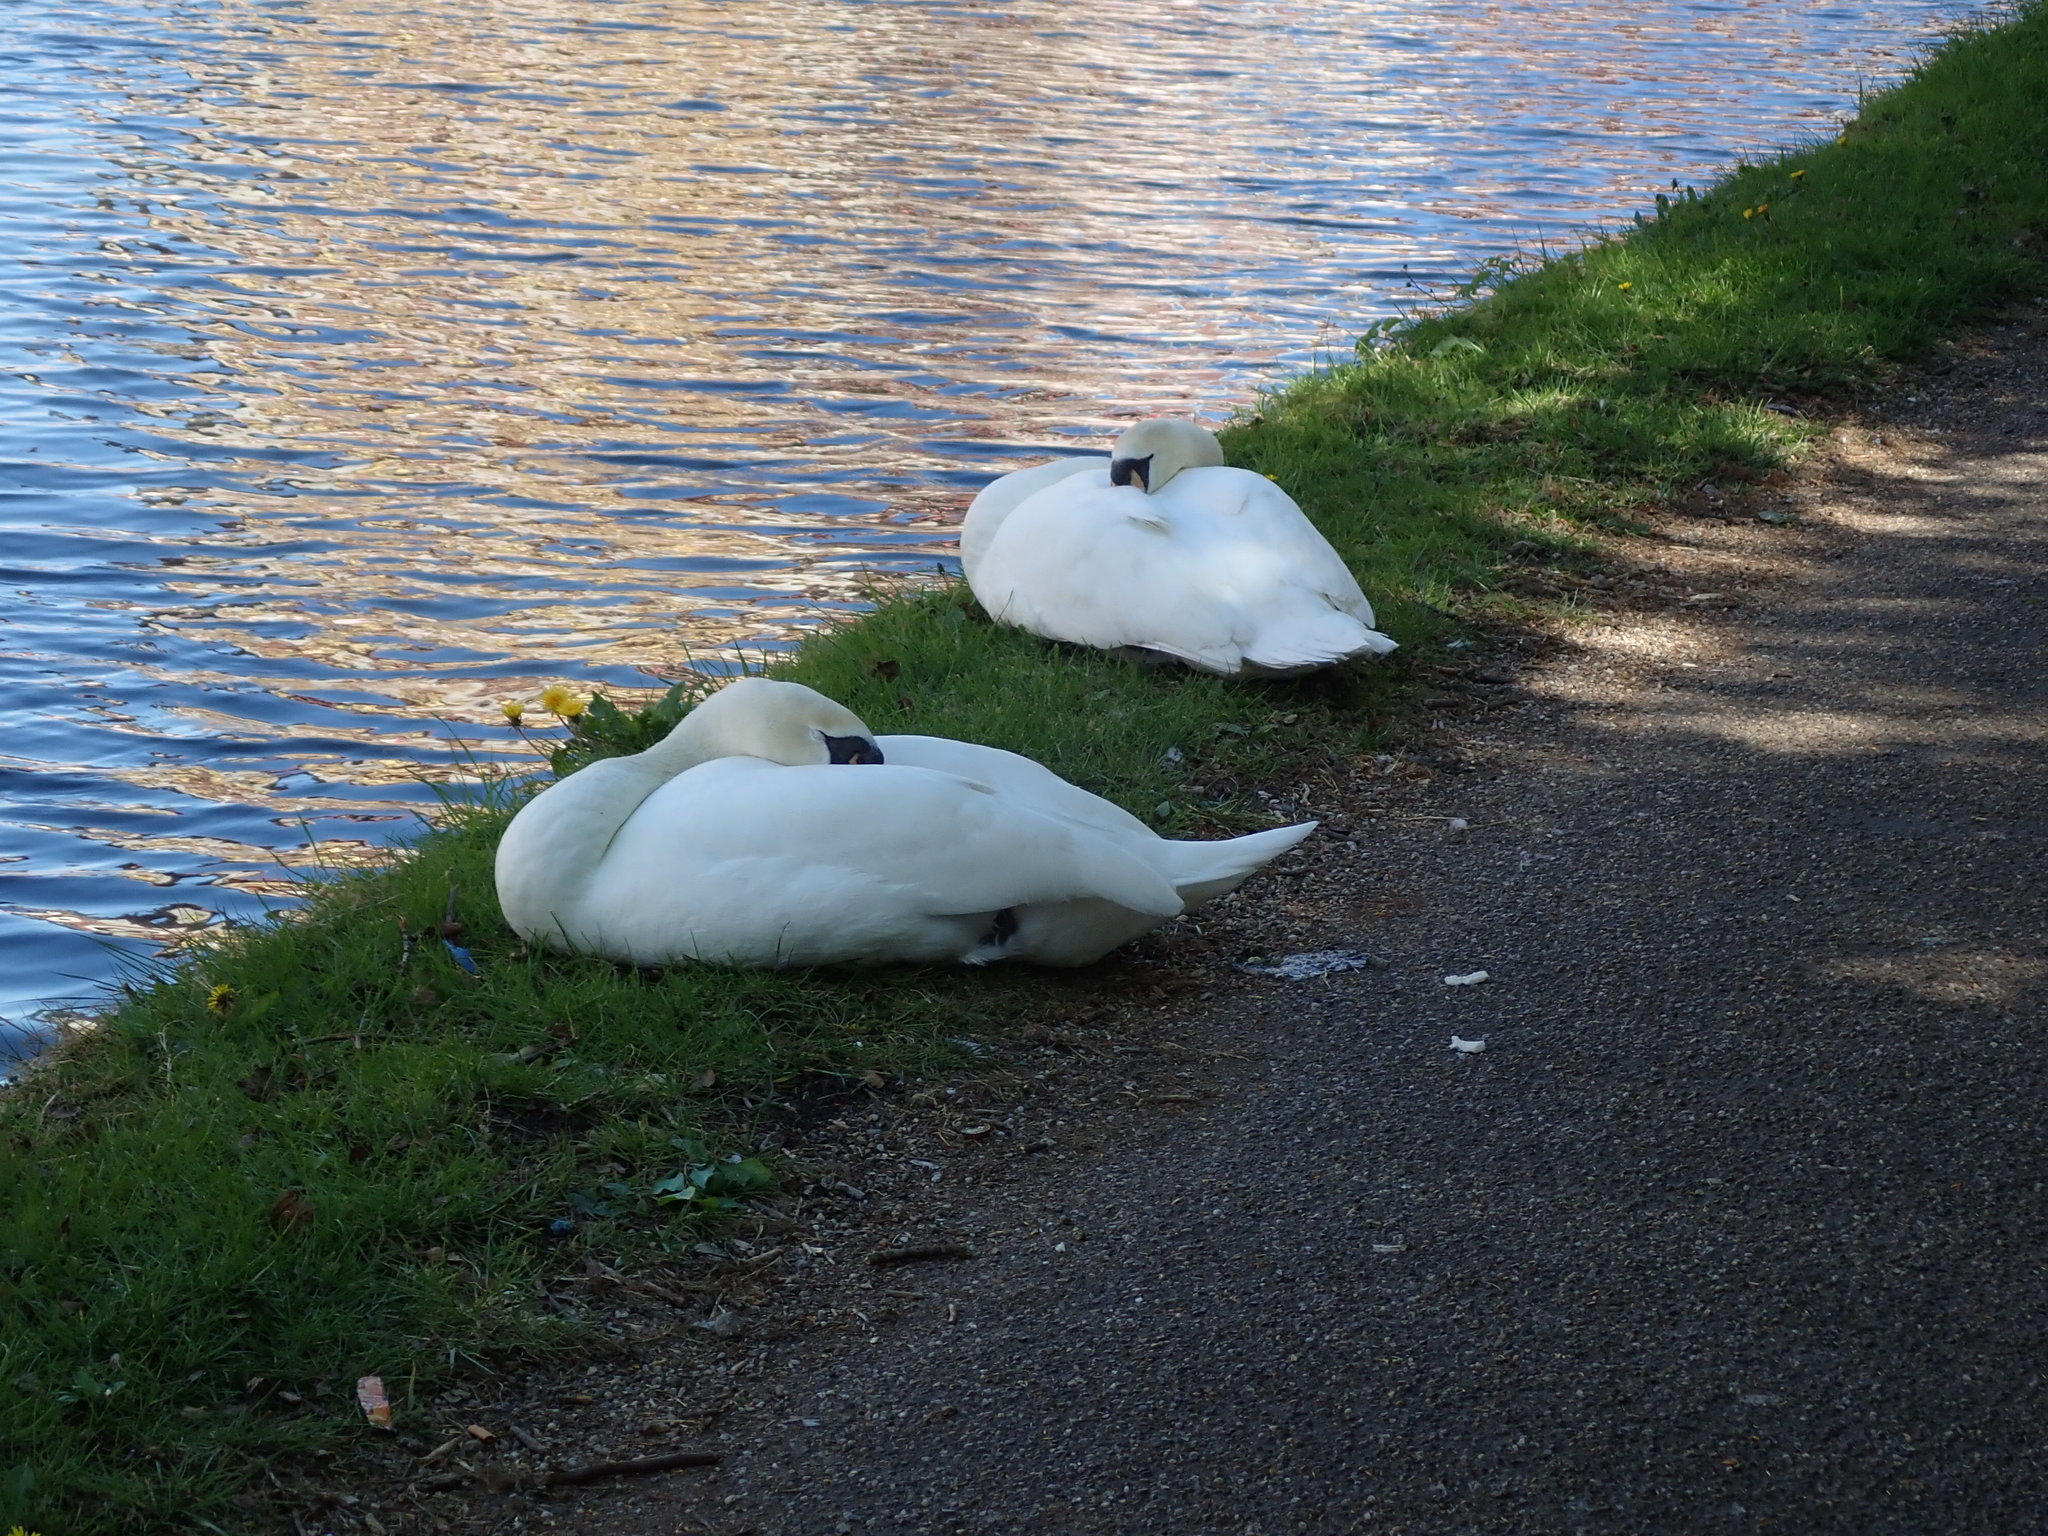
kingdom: Animalia
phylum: Chordata
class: Aves
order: Anseriformes
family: Anatidae
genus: Cygnus
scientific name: Cygnus olor
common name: Mute swan
